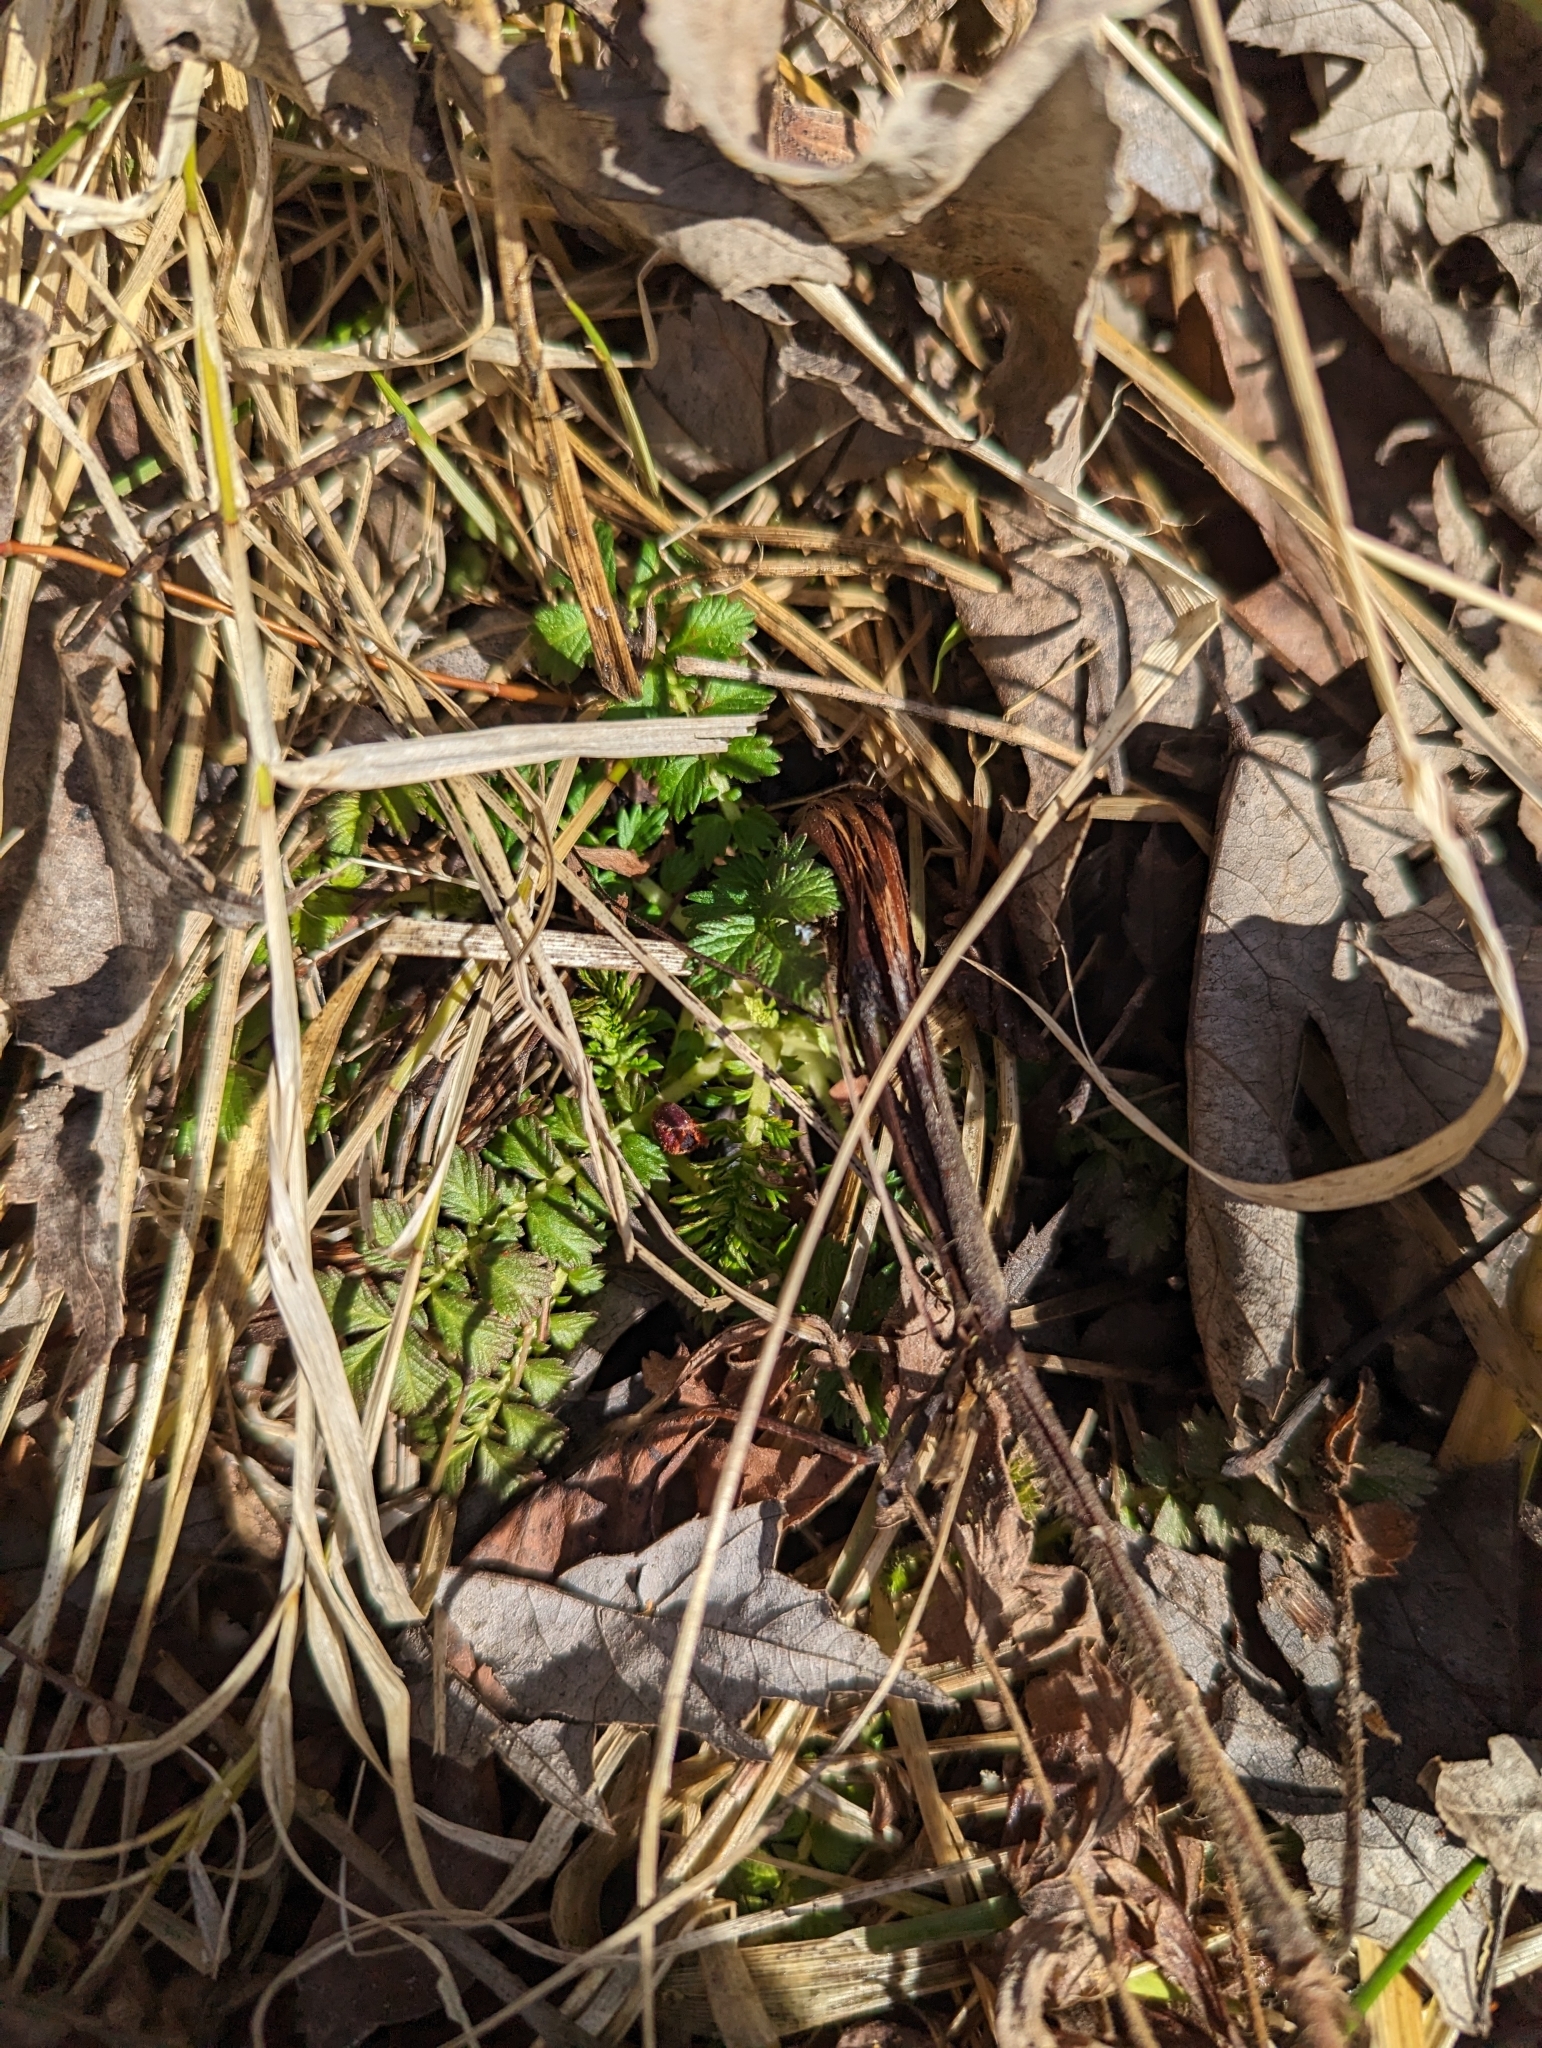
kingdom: Plantae
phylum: Tracheophyta
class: Magnoliopsida
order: Rosales
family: Rosaceae
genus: Agrimonia
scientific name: Agrimonia parviflora
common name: Harvest-lice
